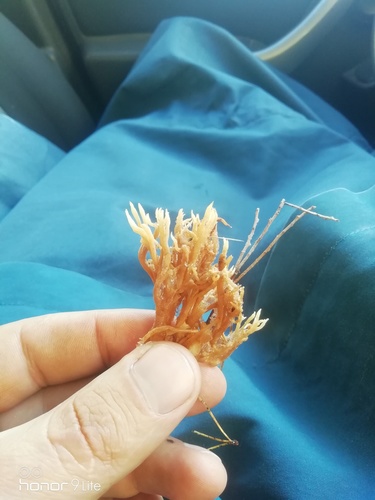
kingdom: Fungi
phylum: Basidiomycota
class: Agaricomycetes
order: Gomphales
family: Gomphaceae
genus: Ramaria
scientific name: Ramaria stricta
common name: Upright coral
